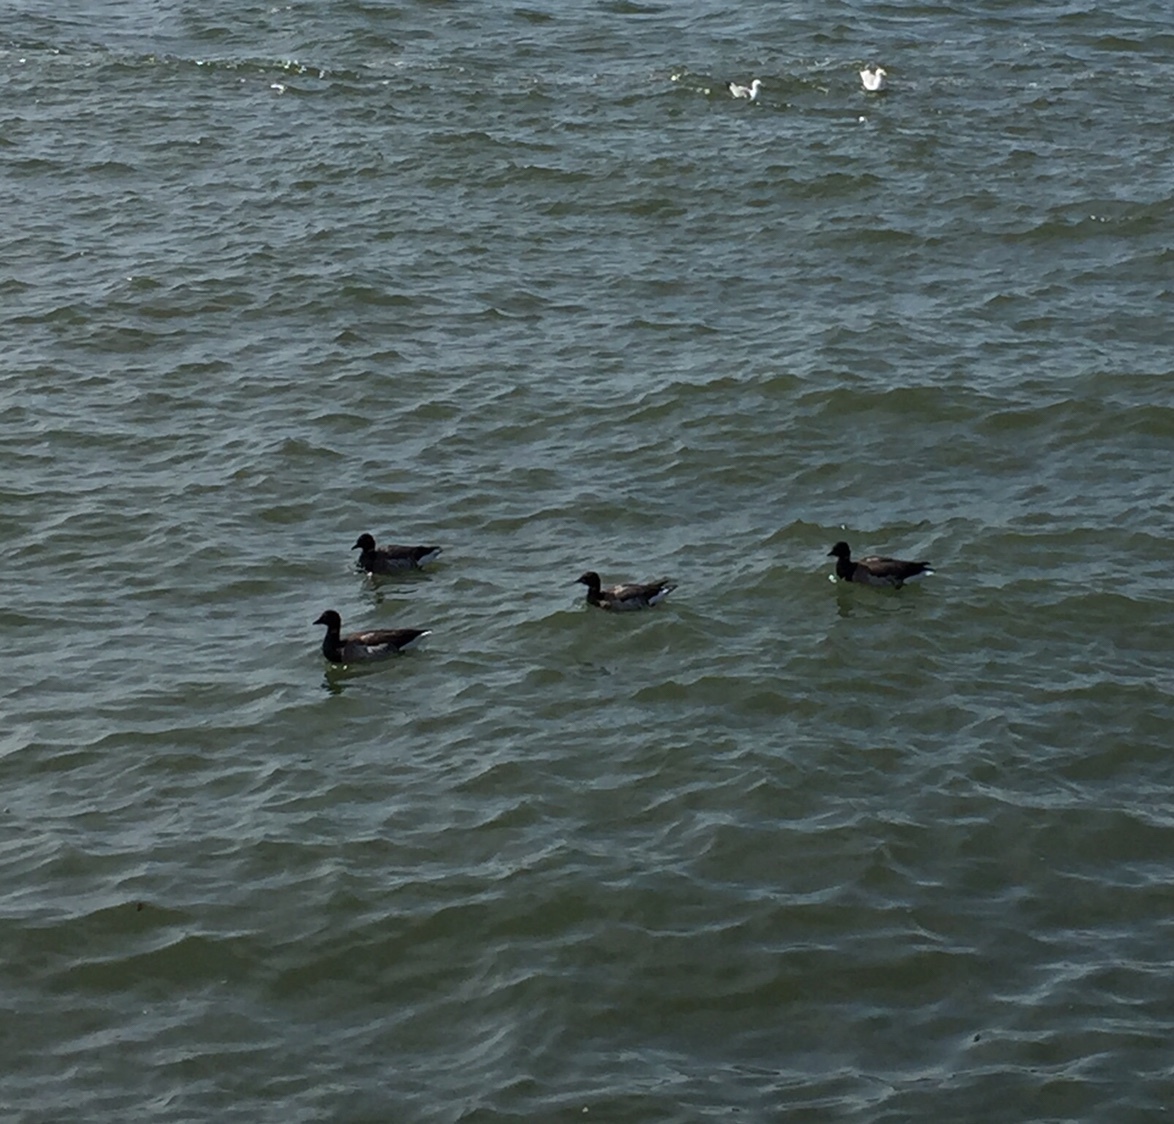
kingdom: Animalia
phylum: Chordata
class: Aves
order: Anseriformes
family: Anatidae
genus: Branta
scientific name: Branta bernicla
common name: Brant goose
